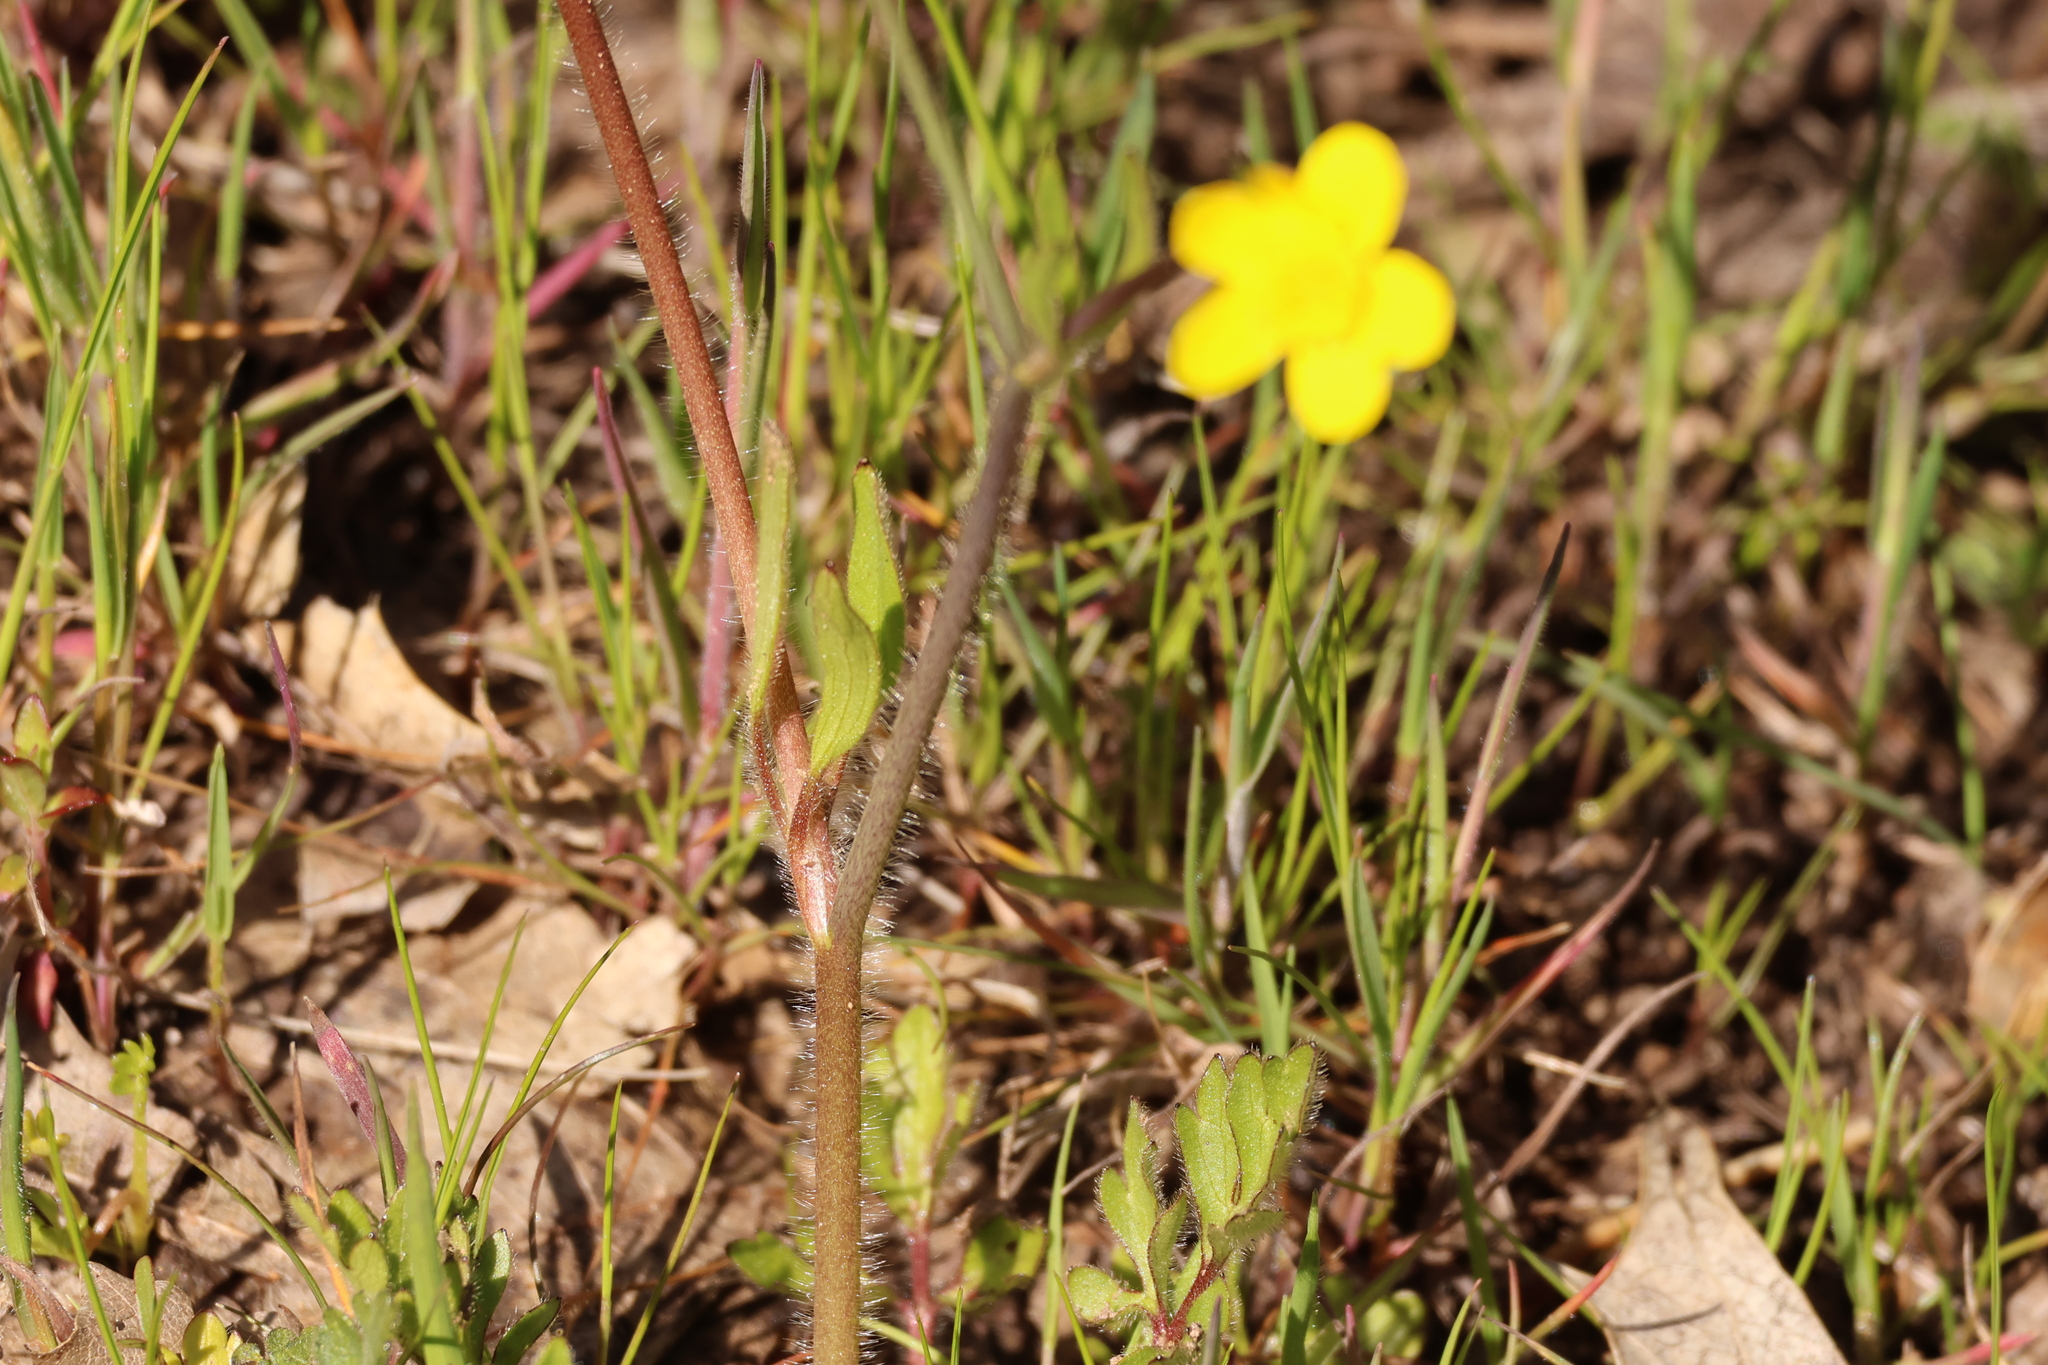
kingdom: Plantae
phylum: Tracheophyta
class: Magnoliopsida
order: Ranunculales
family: Ranunculaceae
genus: Ranunculus
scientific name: Ranunculus californicus
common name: California buttercup
